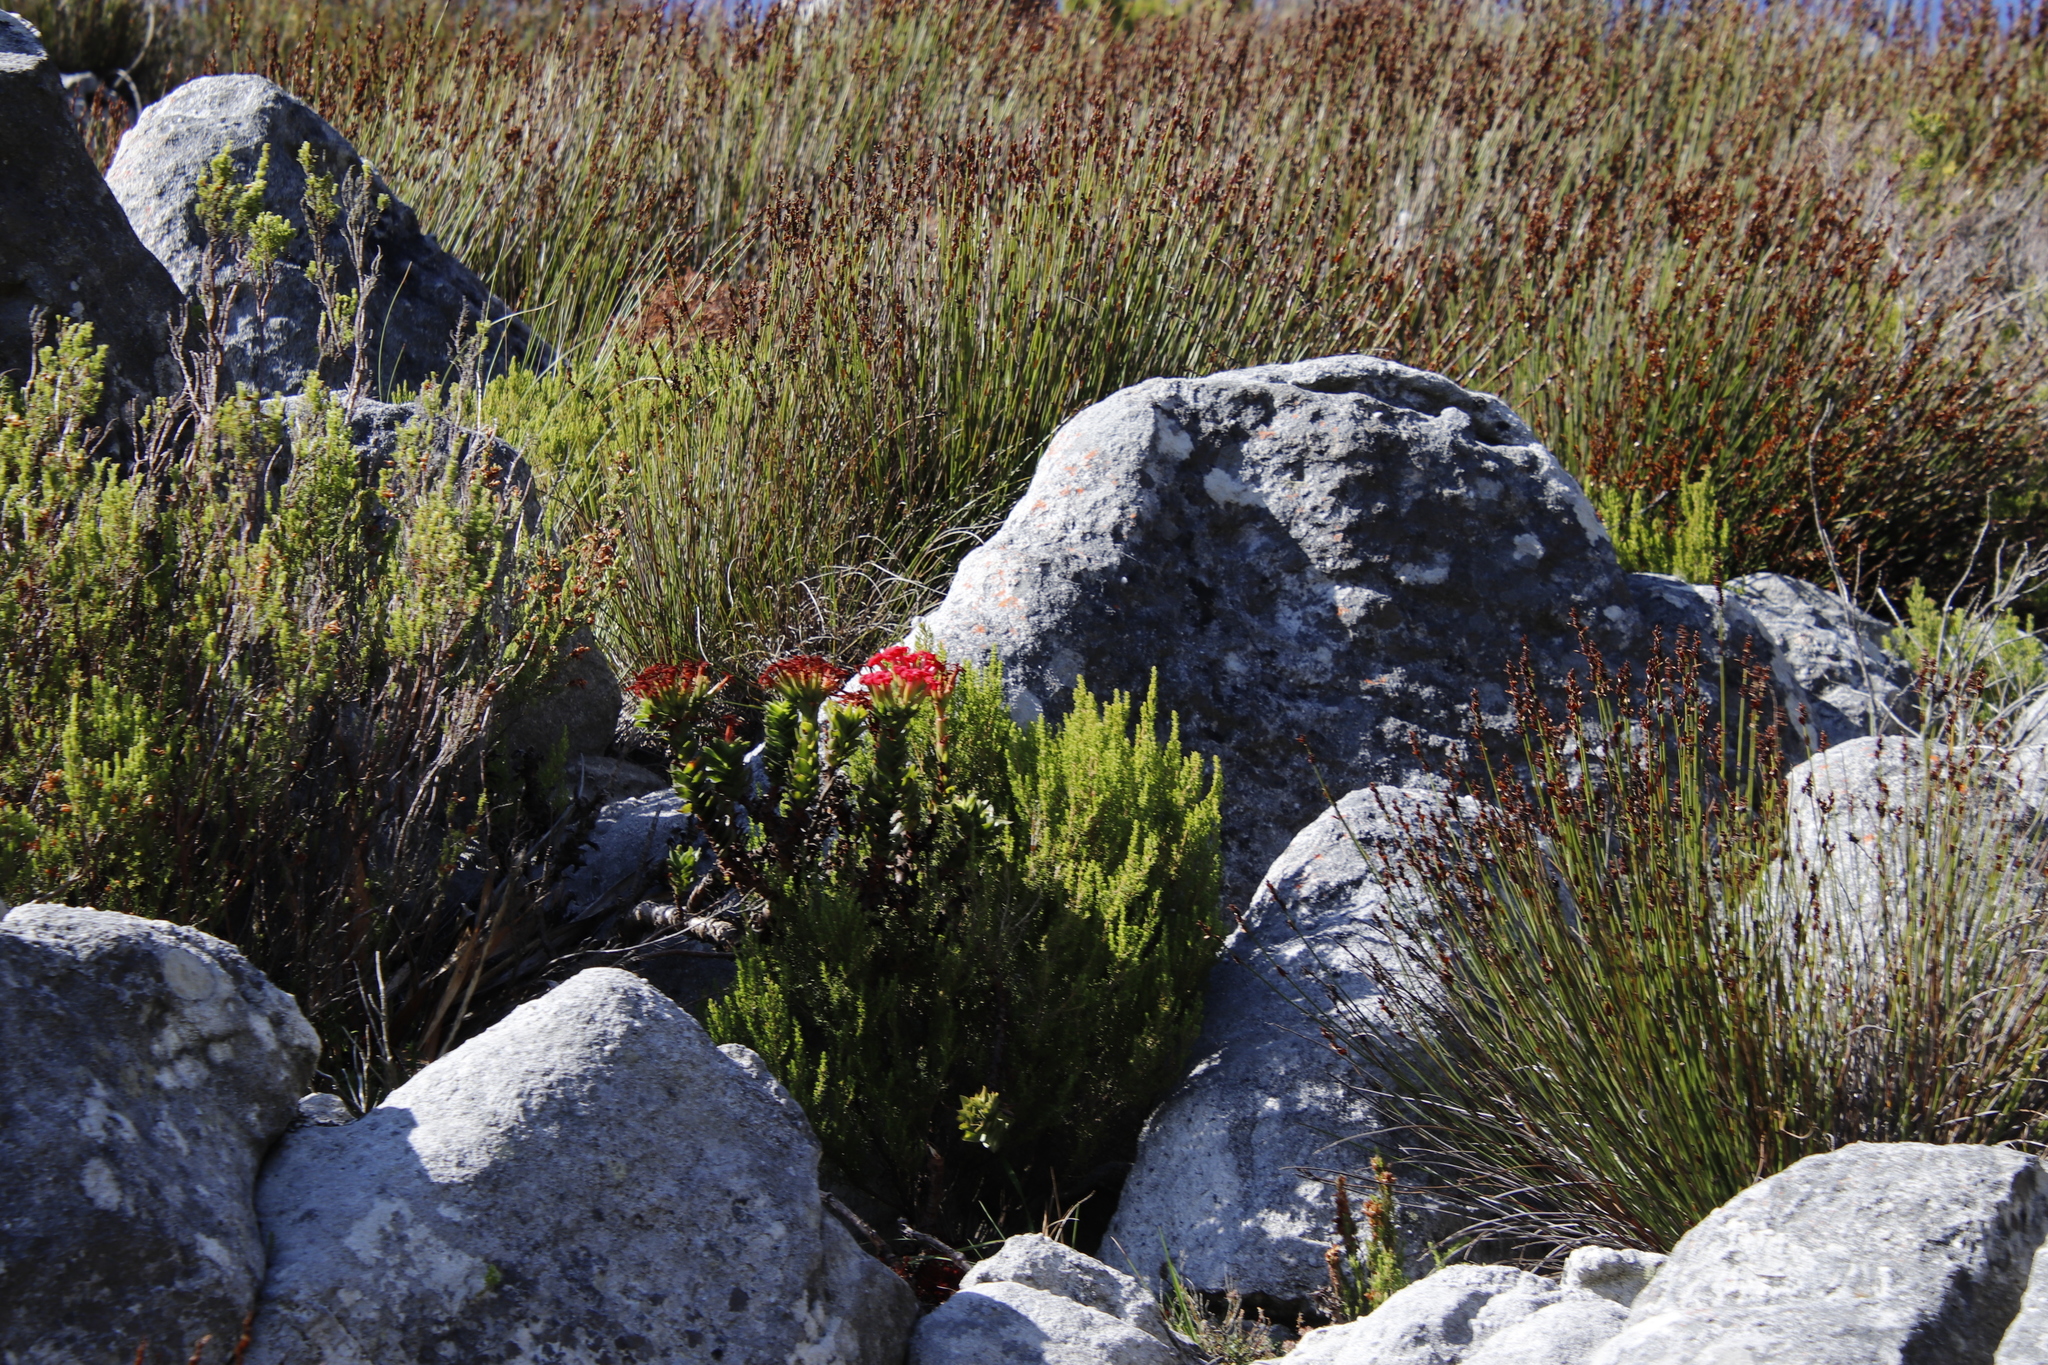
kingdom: Plantae
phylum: Tracheophyta
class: Magnoliopsida
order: Saxifragales
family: Crassulaceae
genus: Crassula
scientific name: Crassula coccinea
